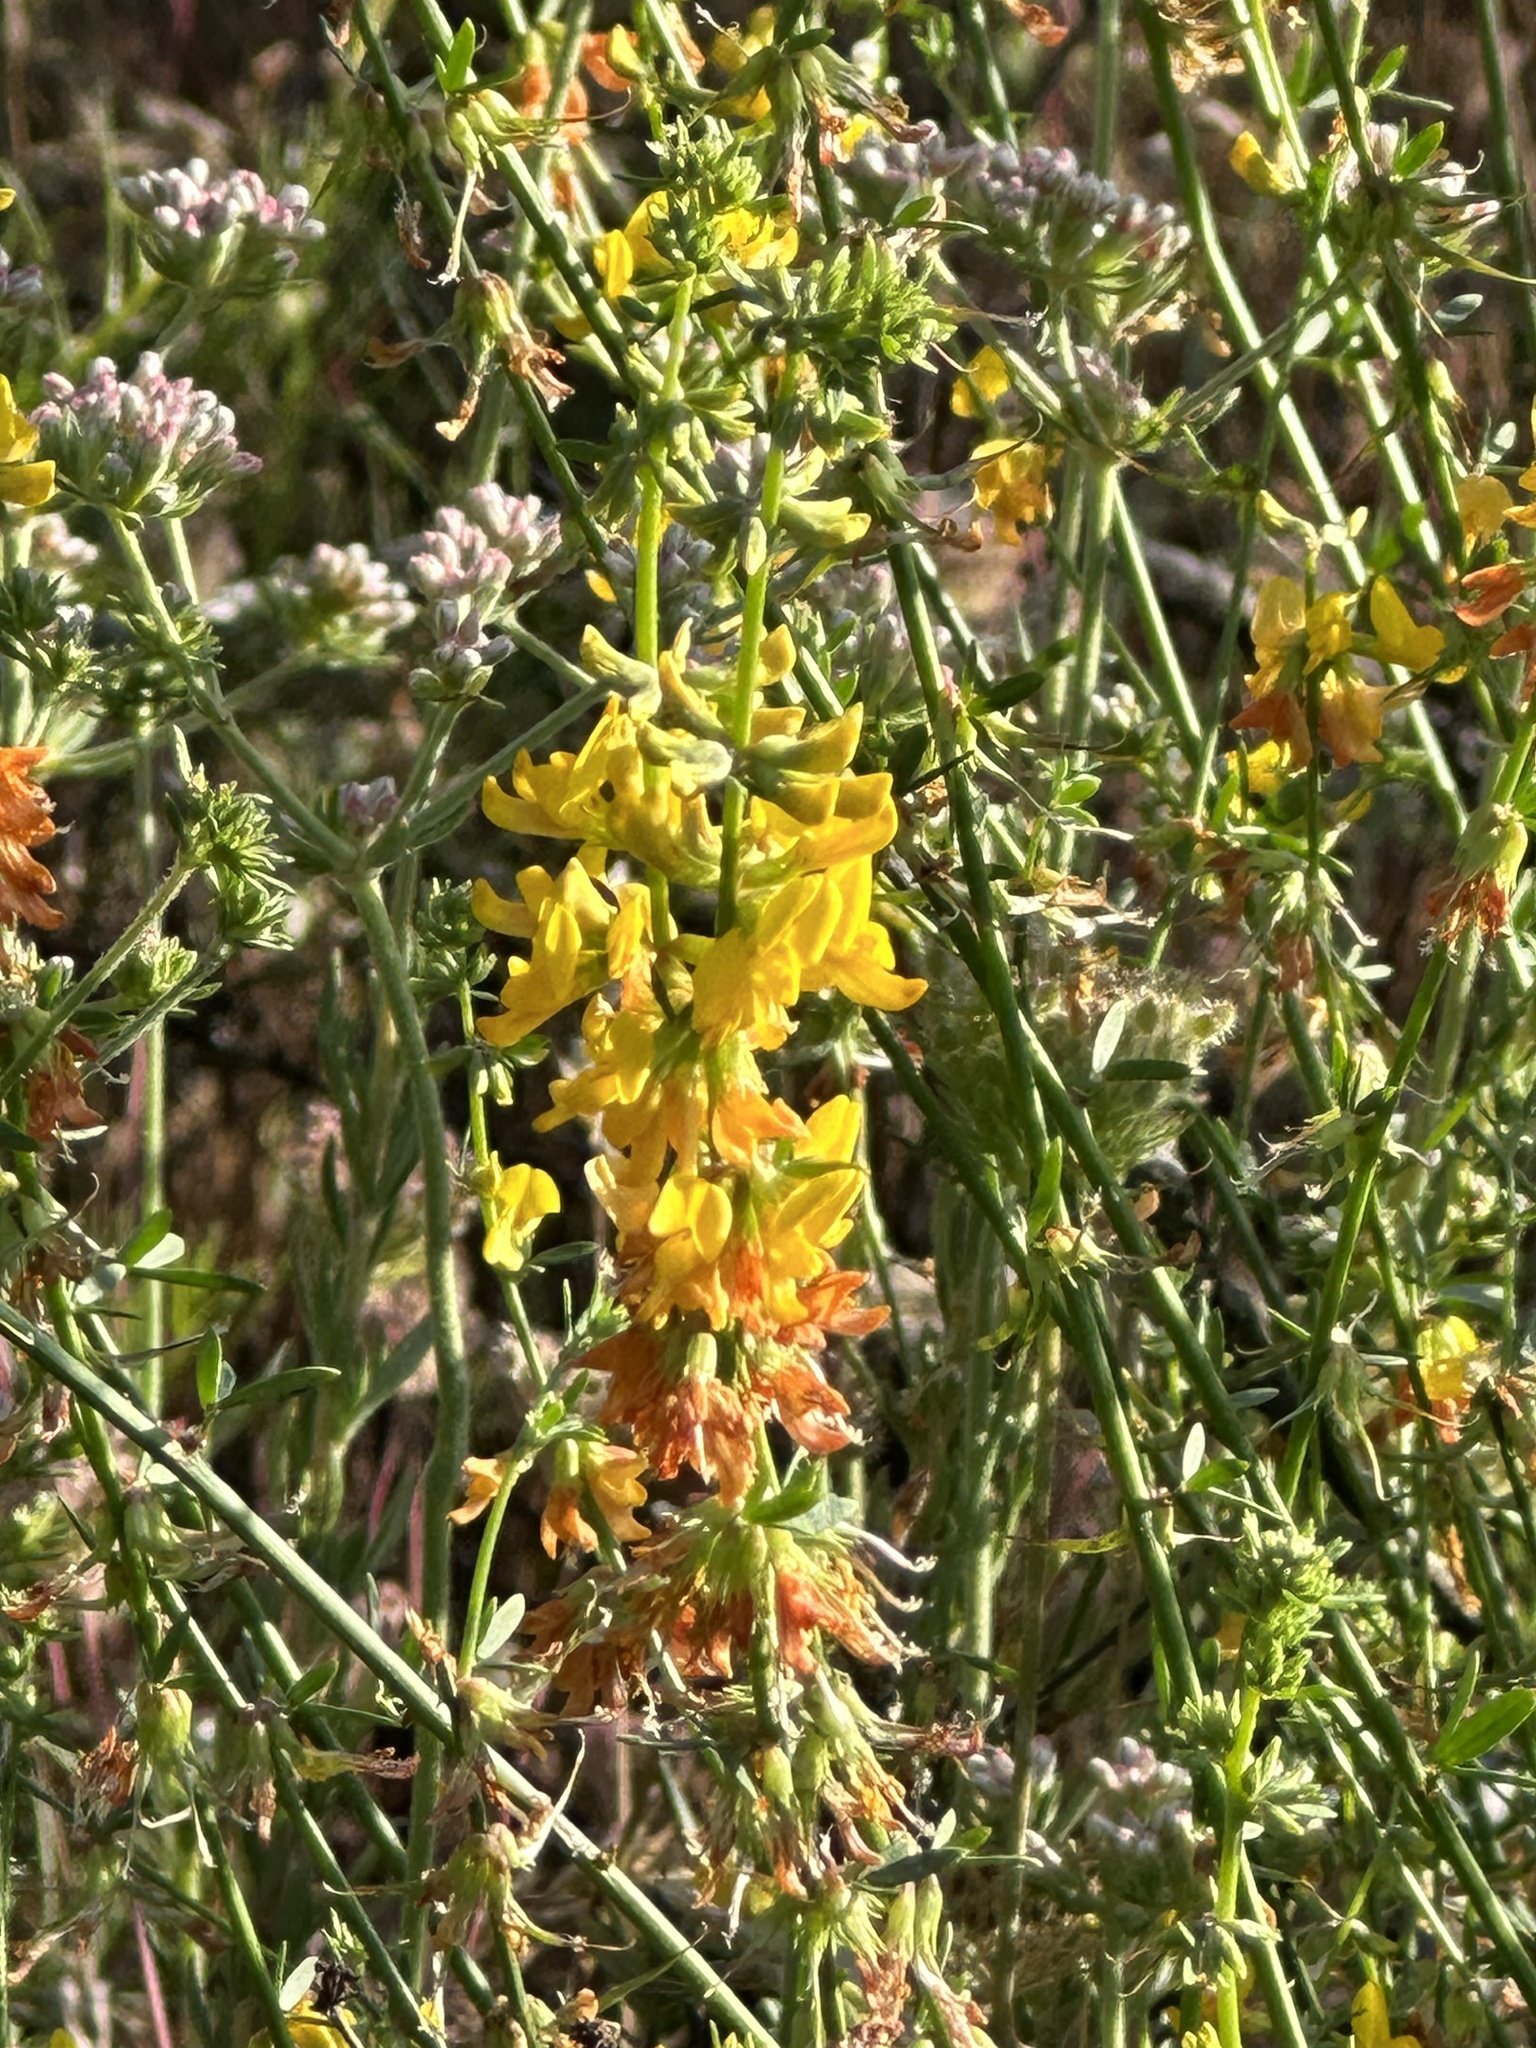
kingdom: Plantae
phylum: Tracheophyta
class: Magnoliopsida
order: Fabales
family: Fabaceae
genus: Acmispon
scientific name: Acmispon glaber
